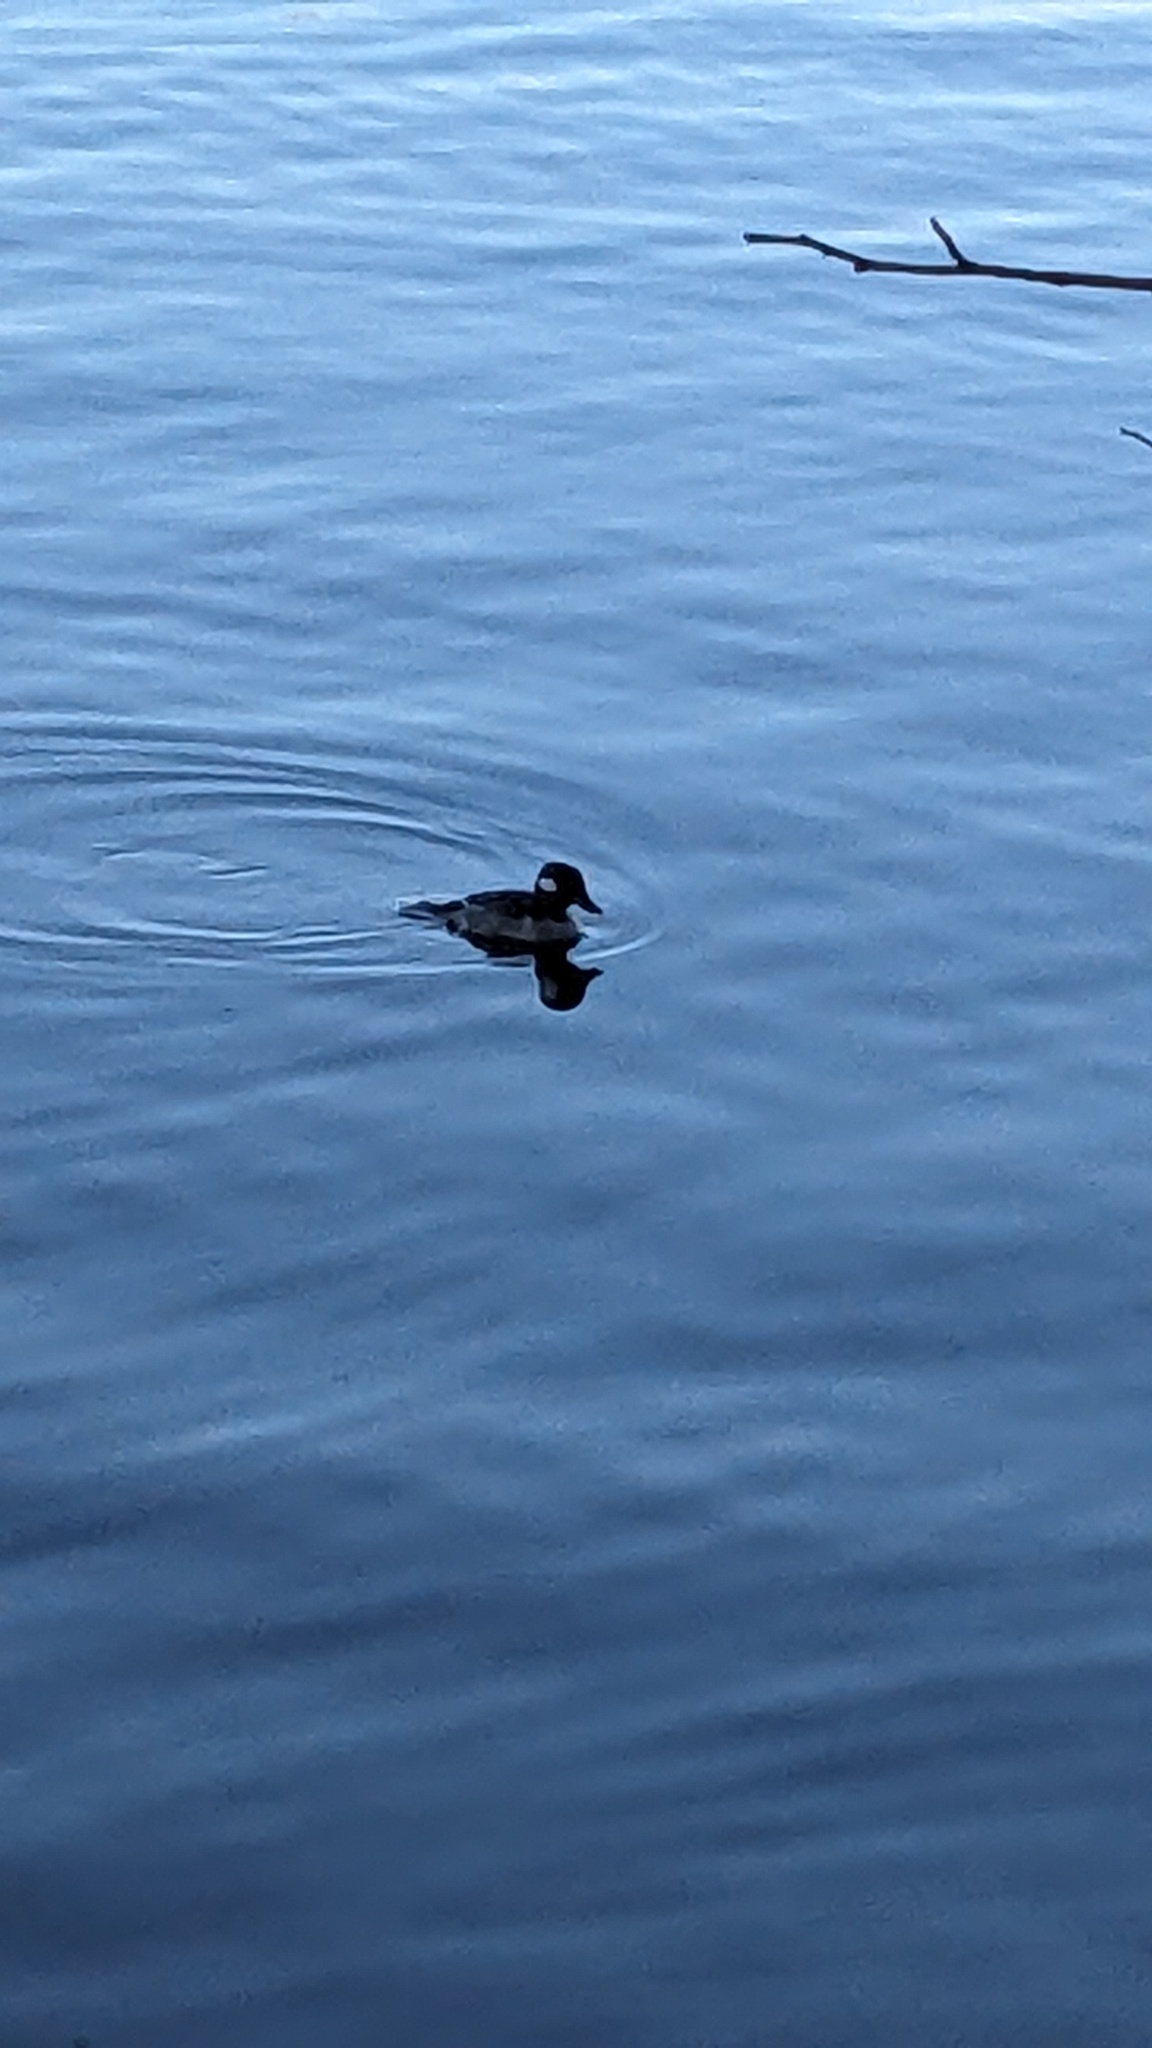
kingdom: Animalia
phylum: Chordata
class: Aves
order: Anseriformes
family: Anatidae
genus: Bucephala
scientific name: Bucephala albeola
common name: Bufflehead
